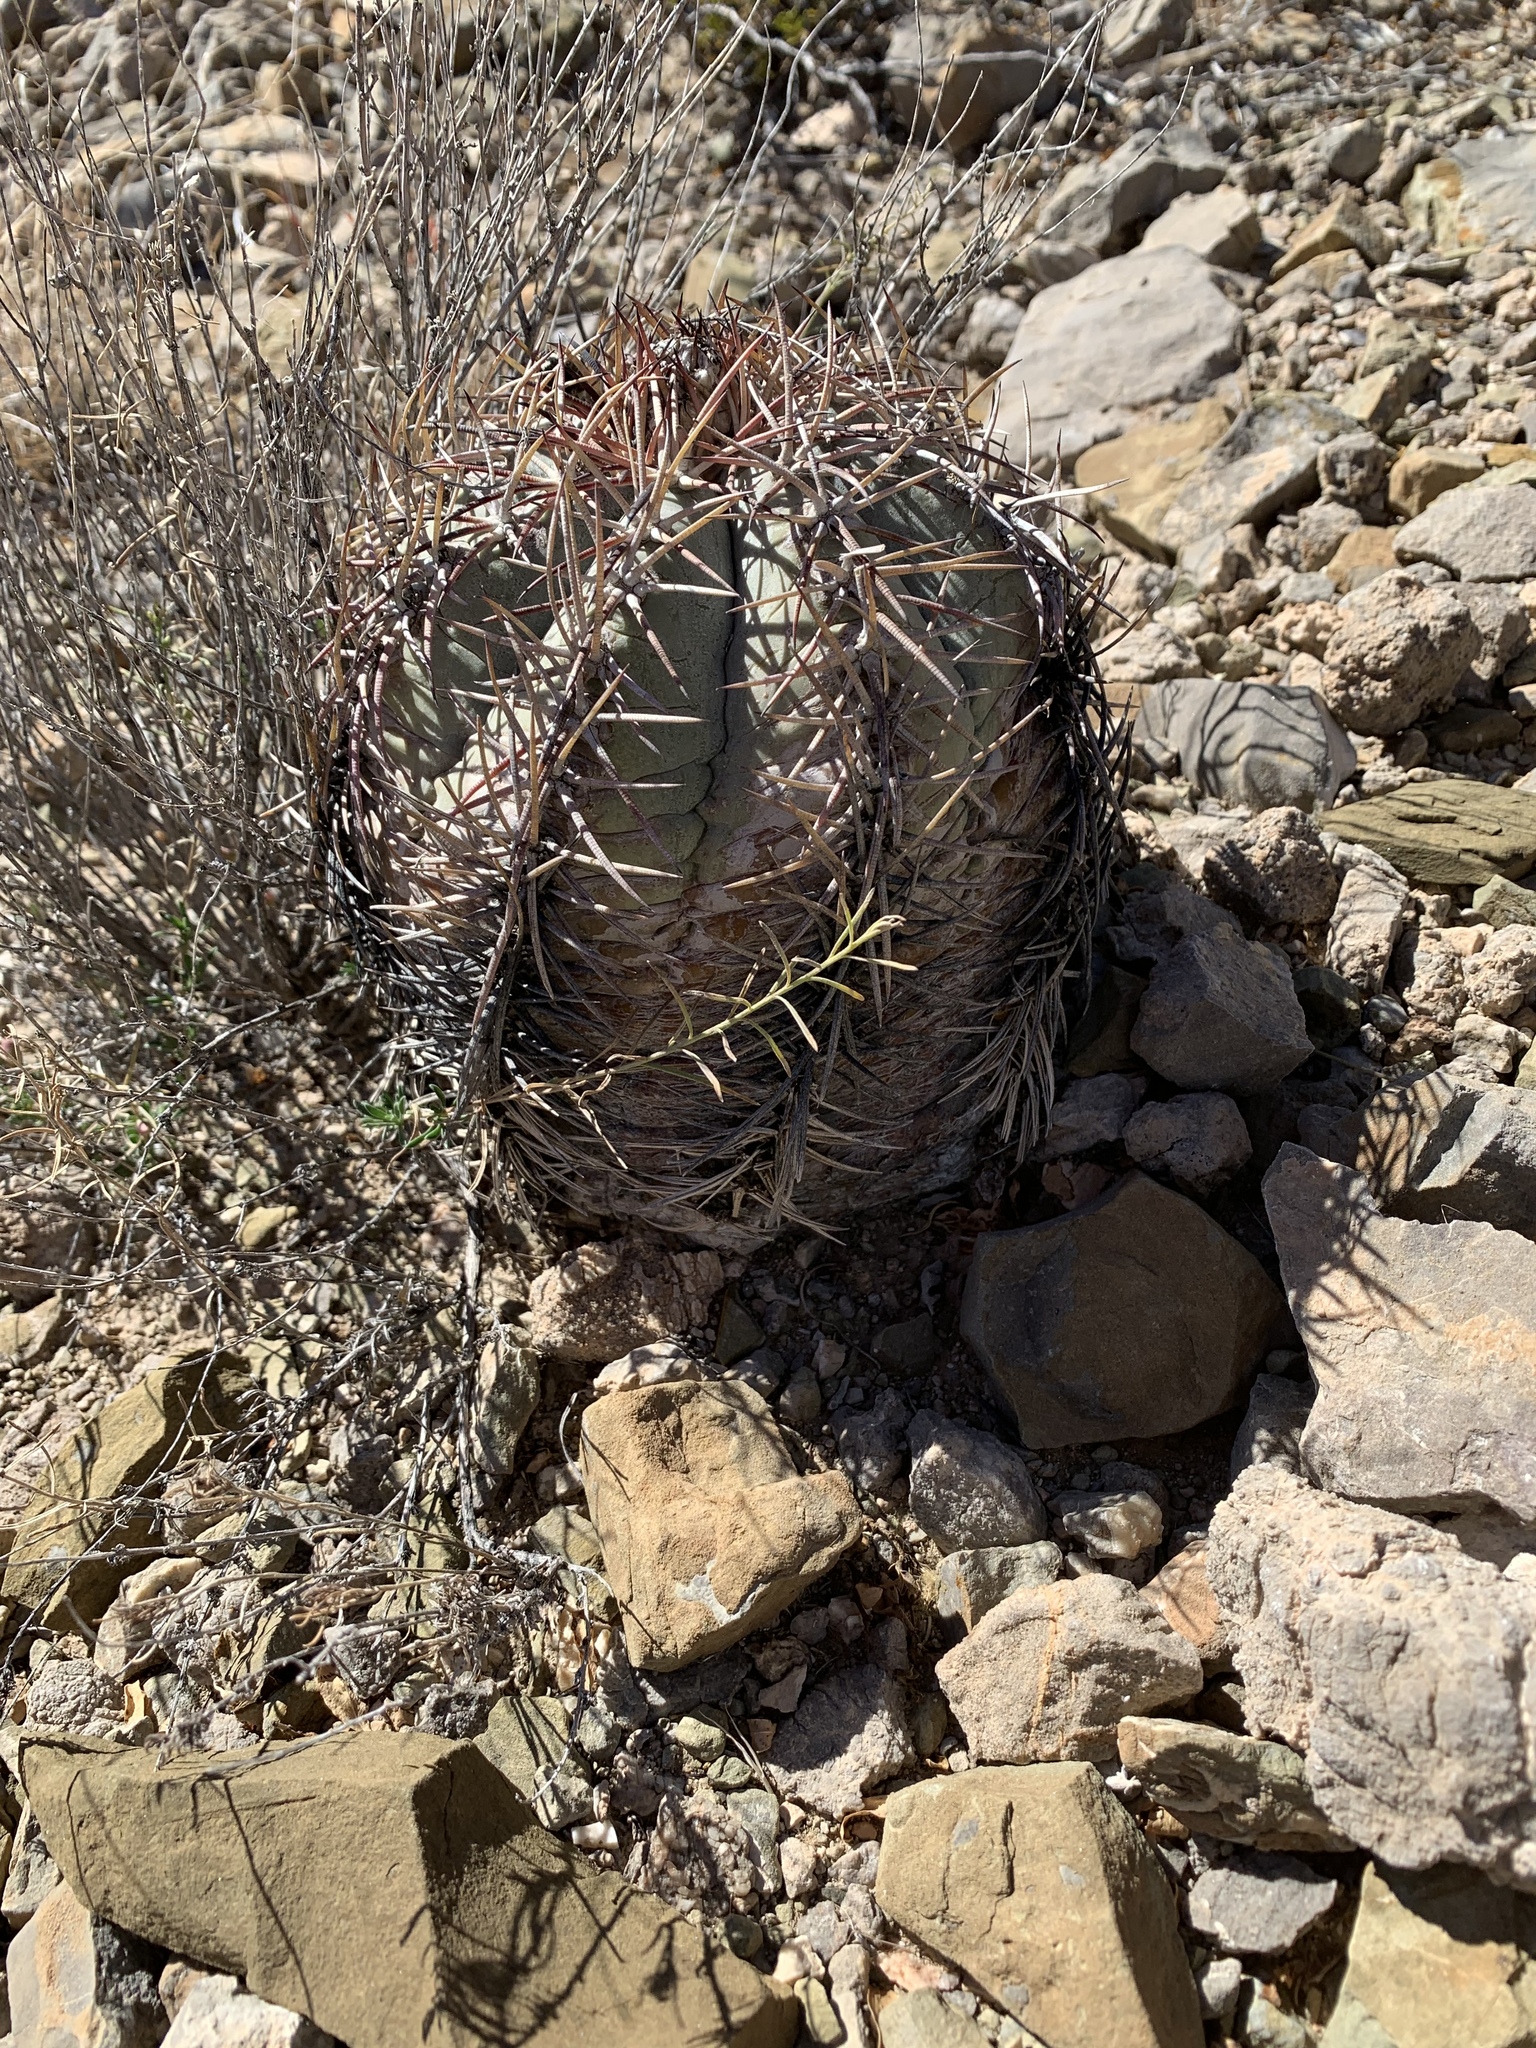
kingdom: Plantae
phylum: Tracheophyta
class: Magnoliopsida
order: Caryophyllales
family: Cactaceae
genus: Echinocactus
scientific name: Echinocactus horizonthalonius
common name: Devilshead
